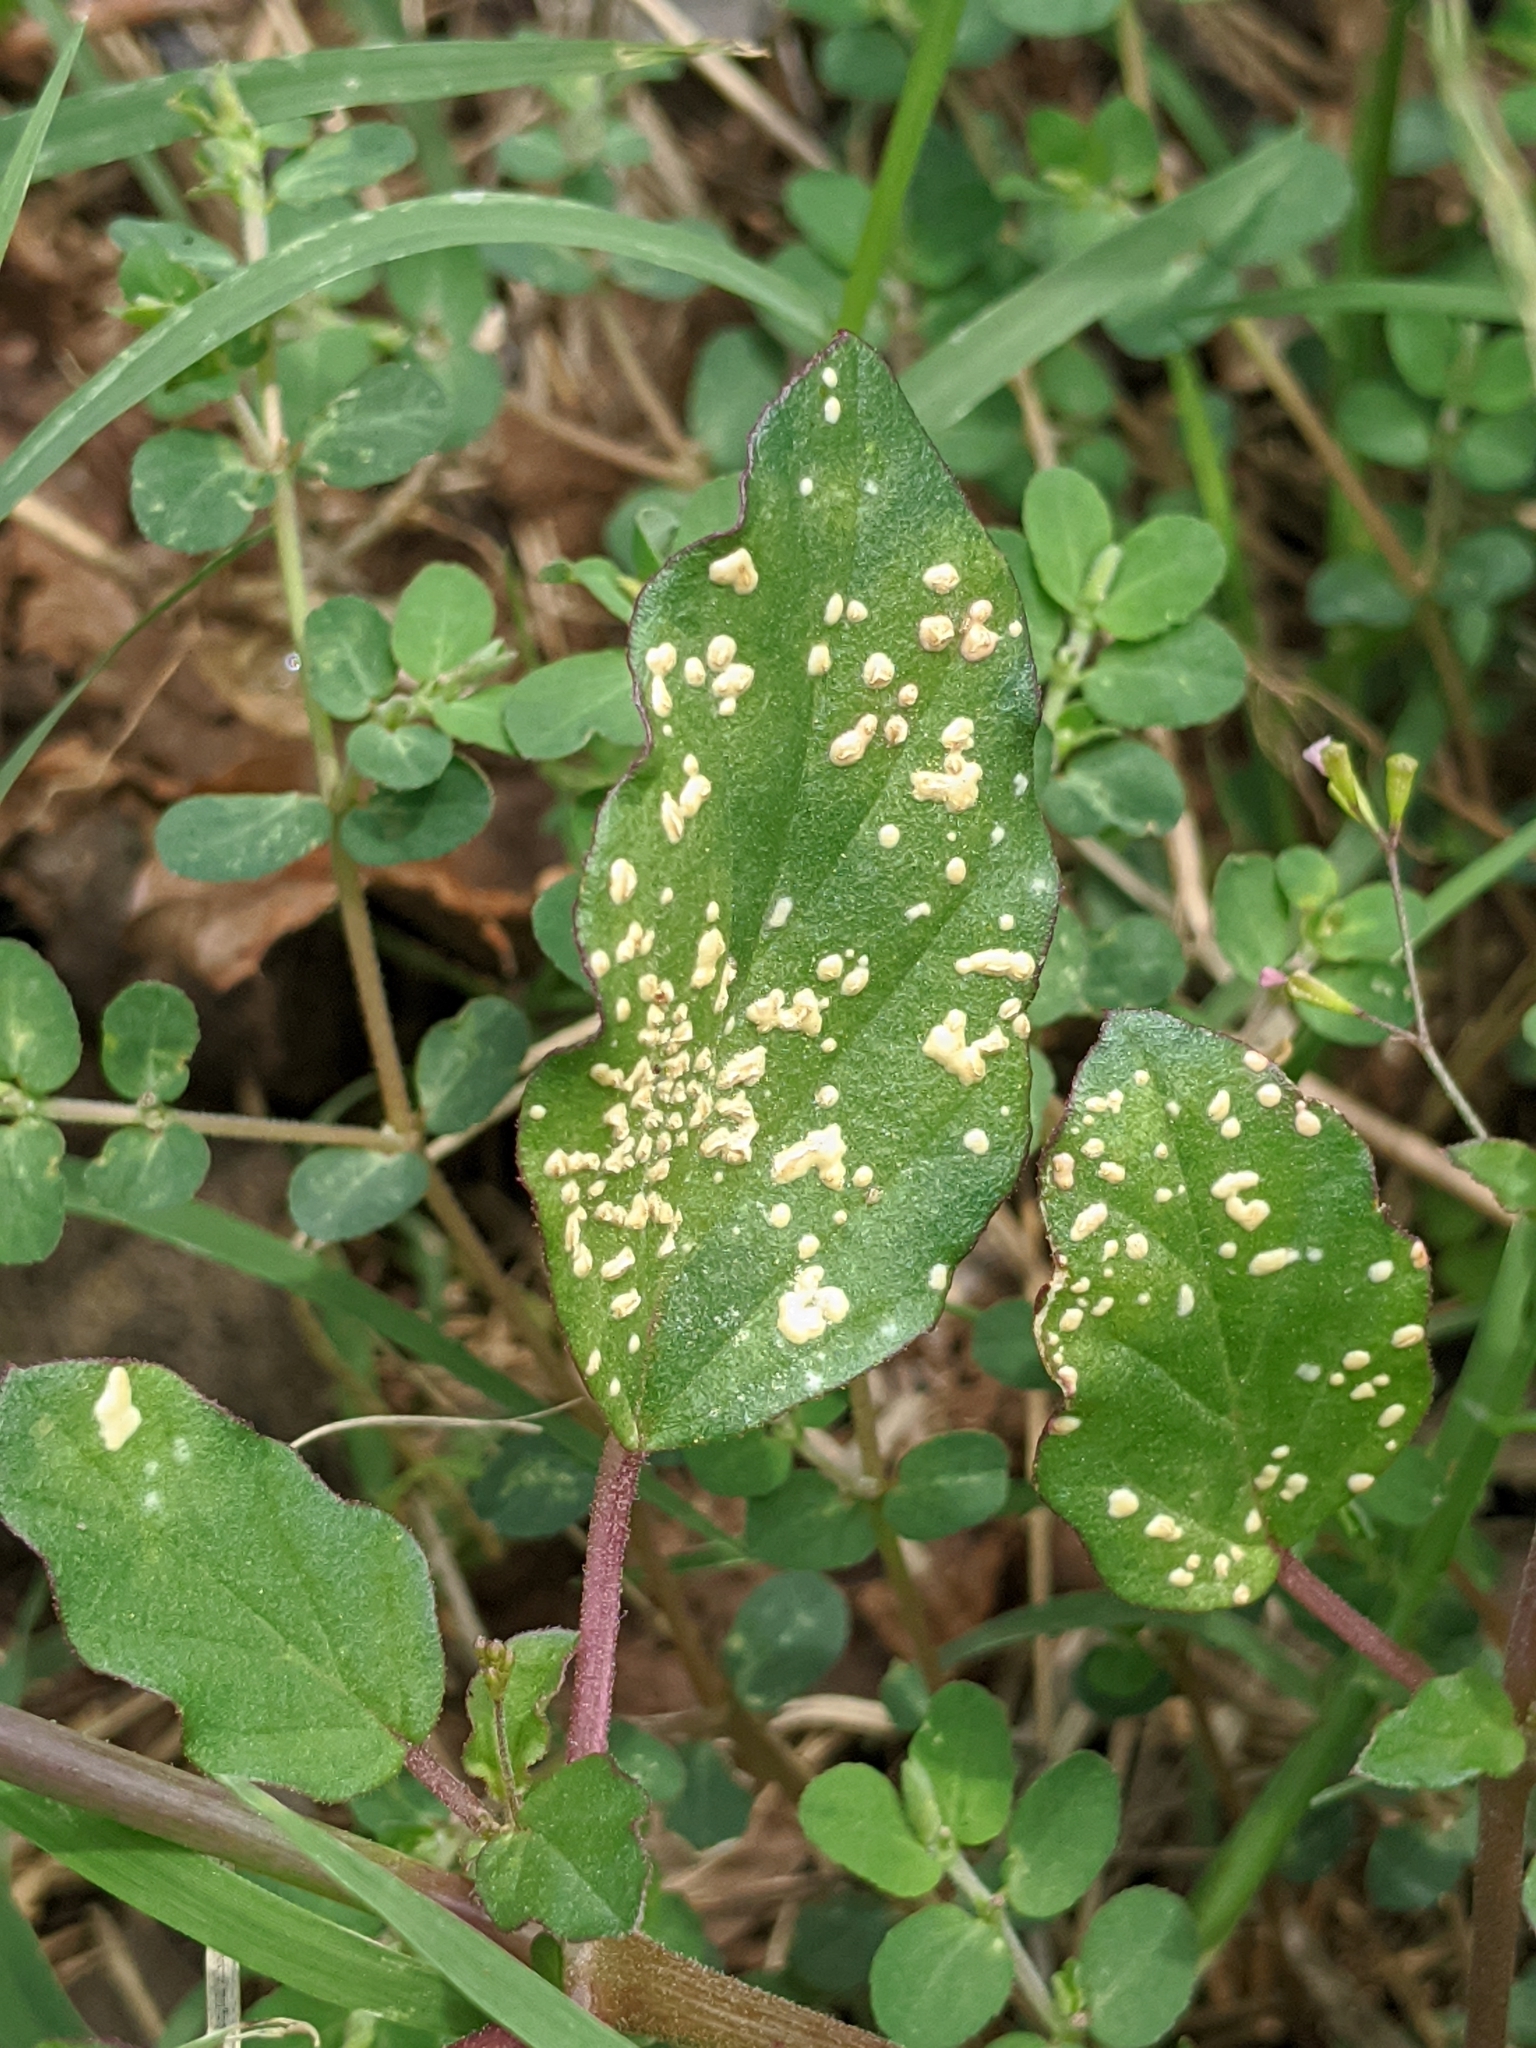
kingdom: Plantae
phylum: Tracheophyta
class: Magnoliopsida
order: Caryophyllales
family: Nyctaginaceae
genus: Boerhavia
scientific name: Boerhavia erecta
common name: Erect spiderling
